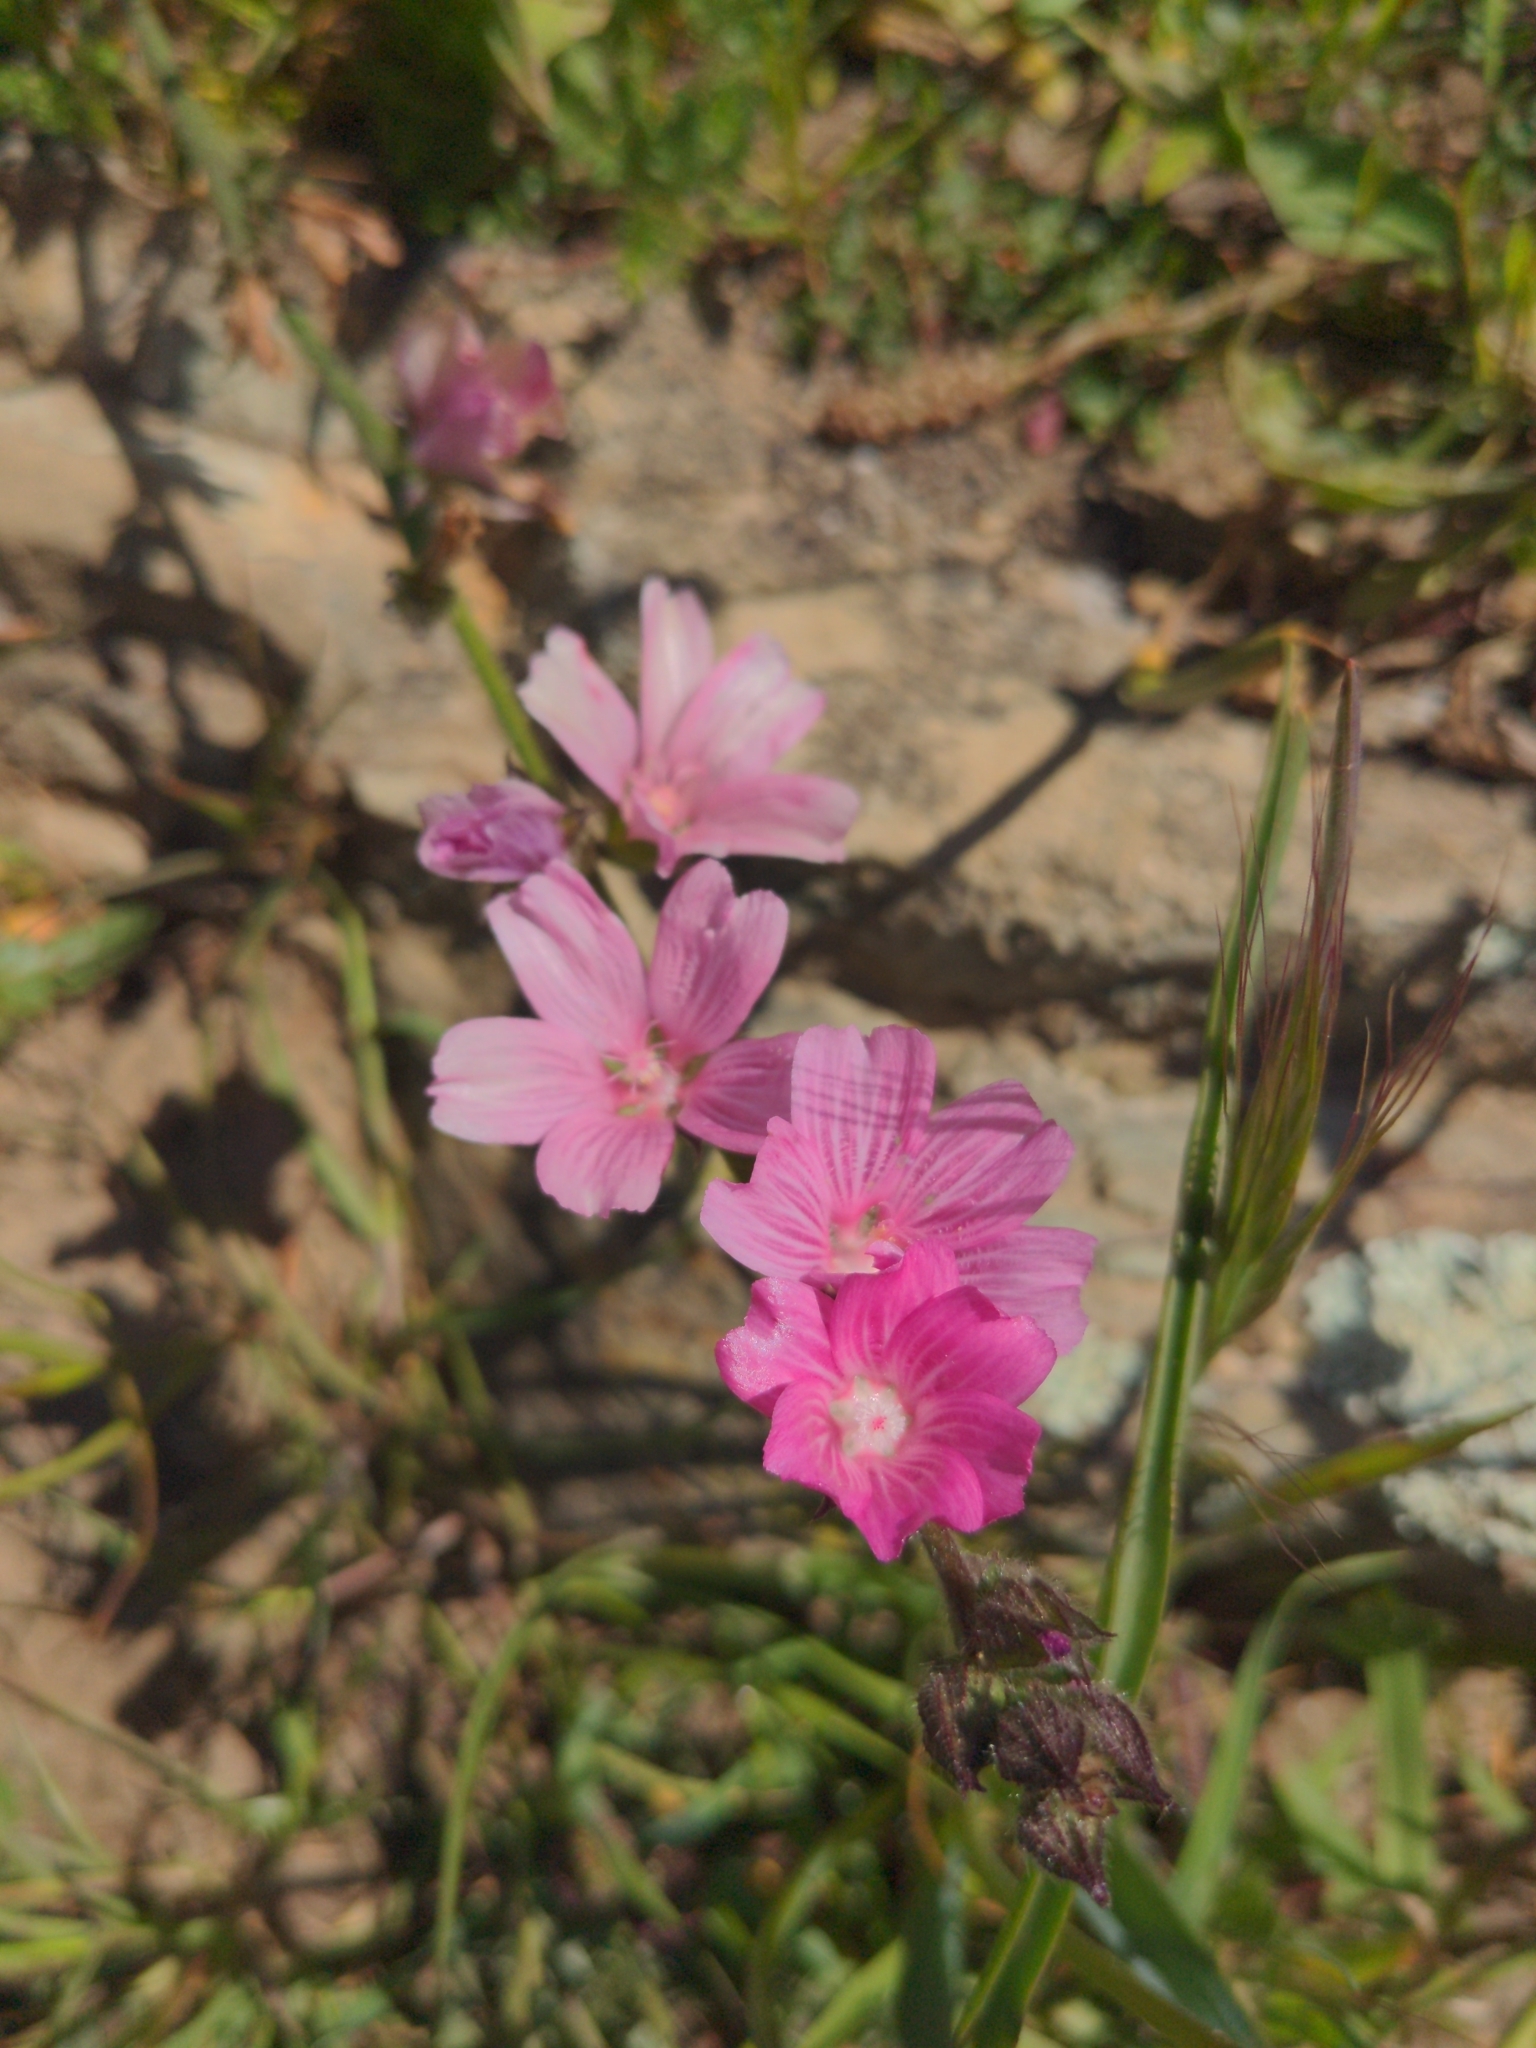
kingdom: Plantae
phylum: Tracheophyta
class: Magnoliopsida
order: Malvales
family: Malvaceae
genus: Sidalcea
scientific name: Sidalcea malviflora
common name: Greek mallow
